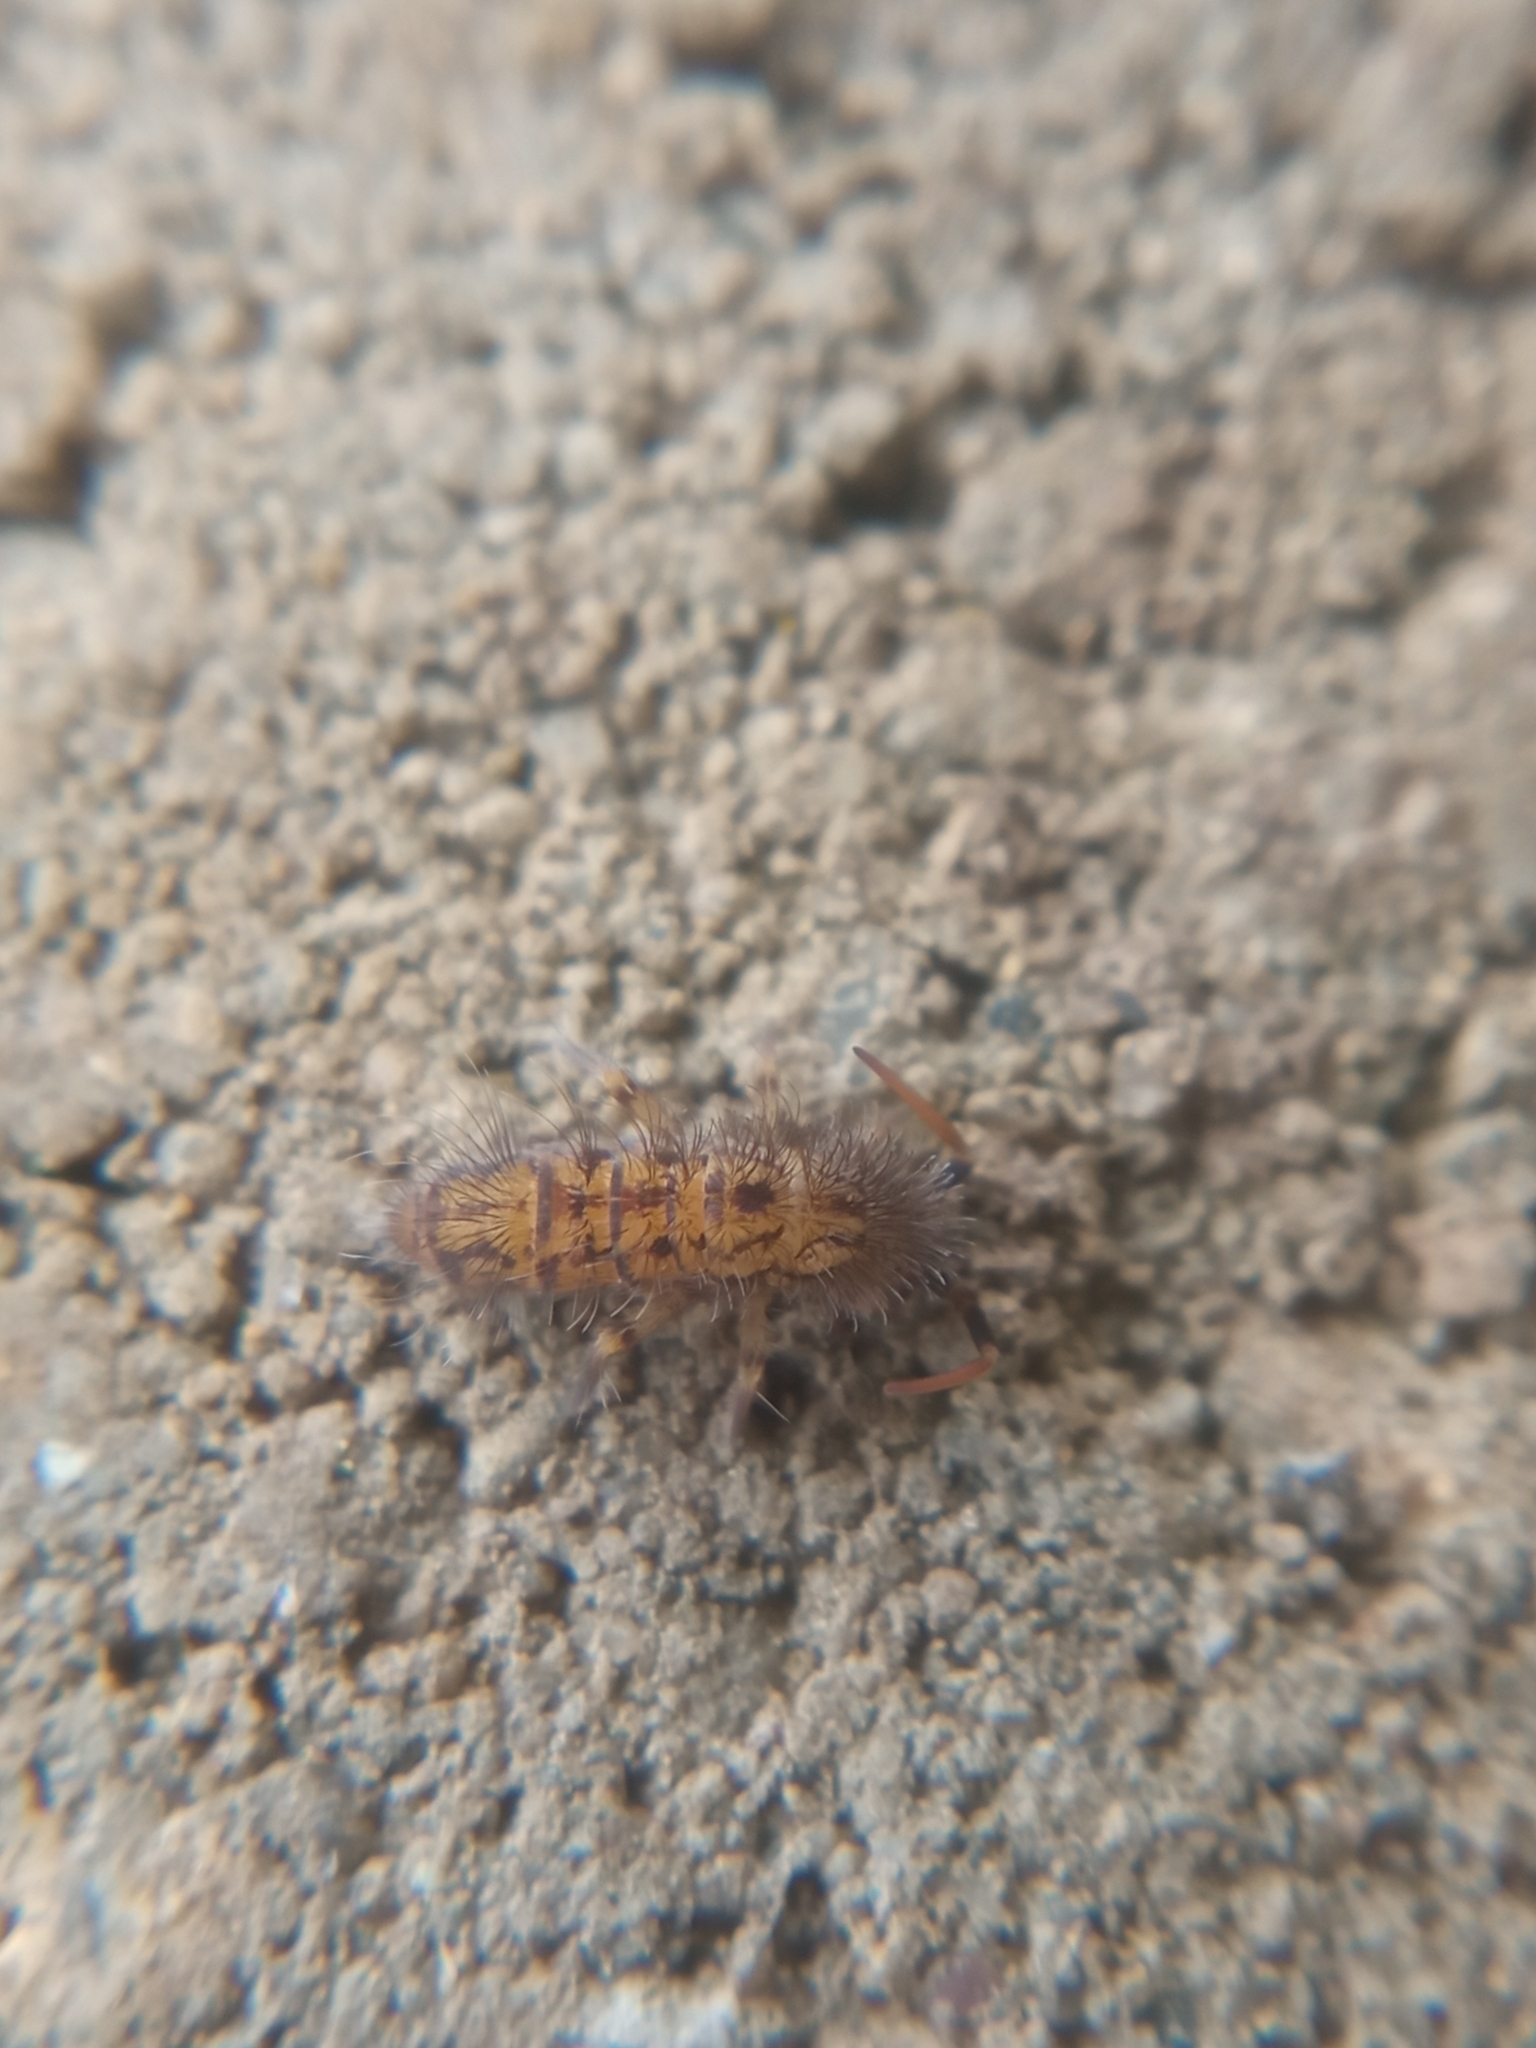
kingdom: Animalia
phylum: Arthropoda
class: Collembola
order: Entomobryomorpha
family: Orchesellidae
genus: Orchesella
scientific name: Orchesella villosa
